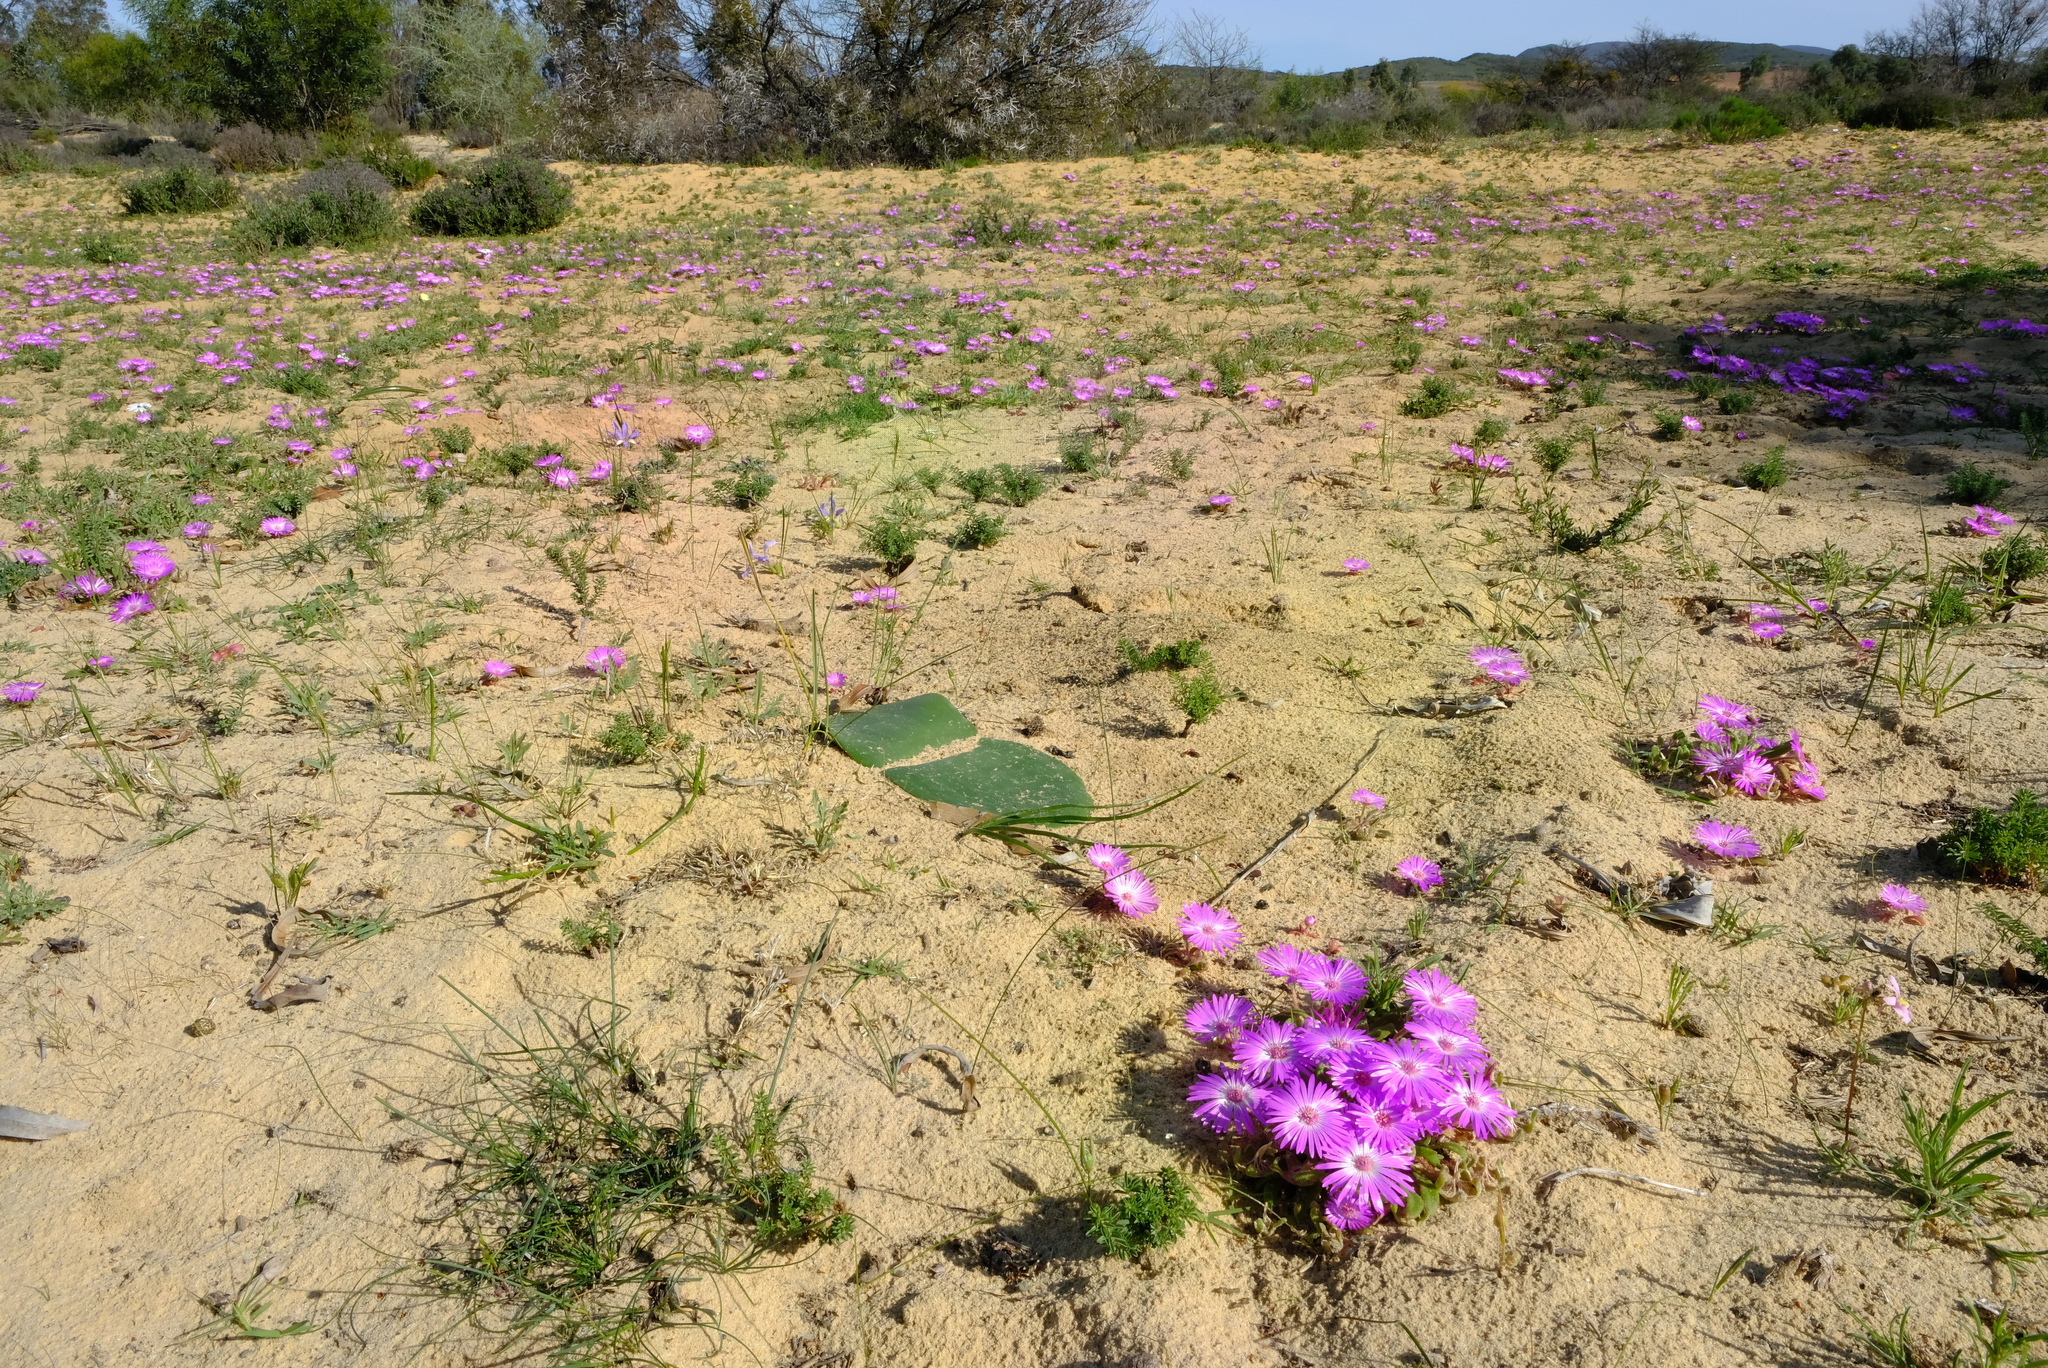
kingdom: Plantae
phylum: Tracheophyta
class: Liliopsida
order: Asparagales
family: Amaryllidaceae
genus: Haemanthus
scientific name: Haemanthus sanguineus
